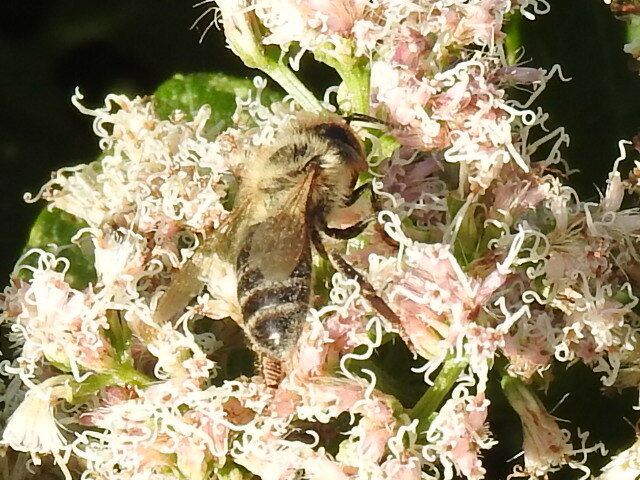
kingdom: Animalia
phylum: Arthropoda
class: Insecta
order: Hymenoptera
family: Apidae
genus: Apis
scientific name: Apis mellifera
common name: Honey bee
